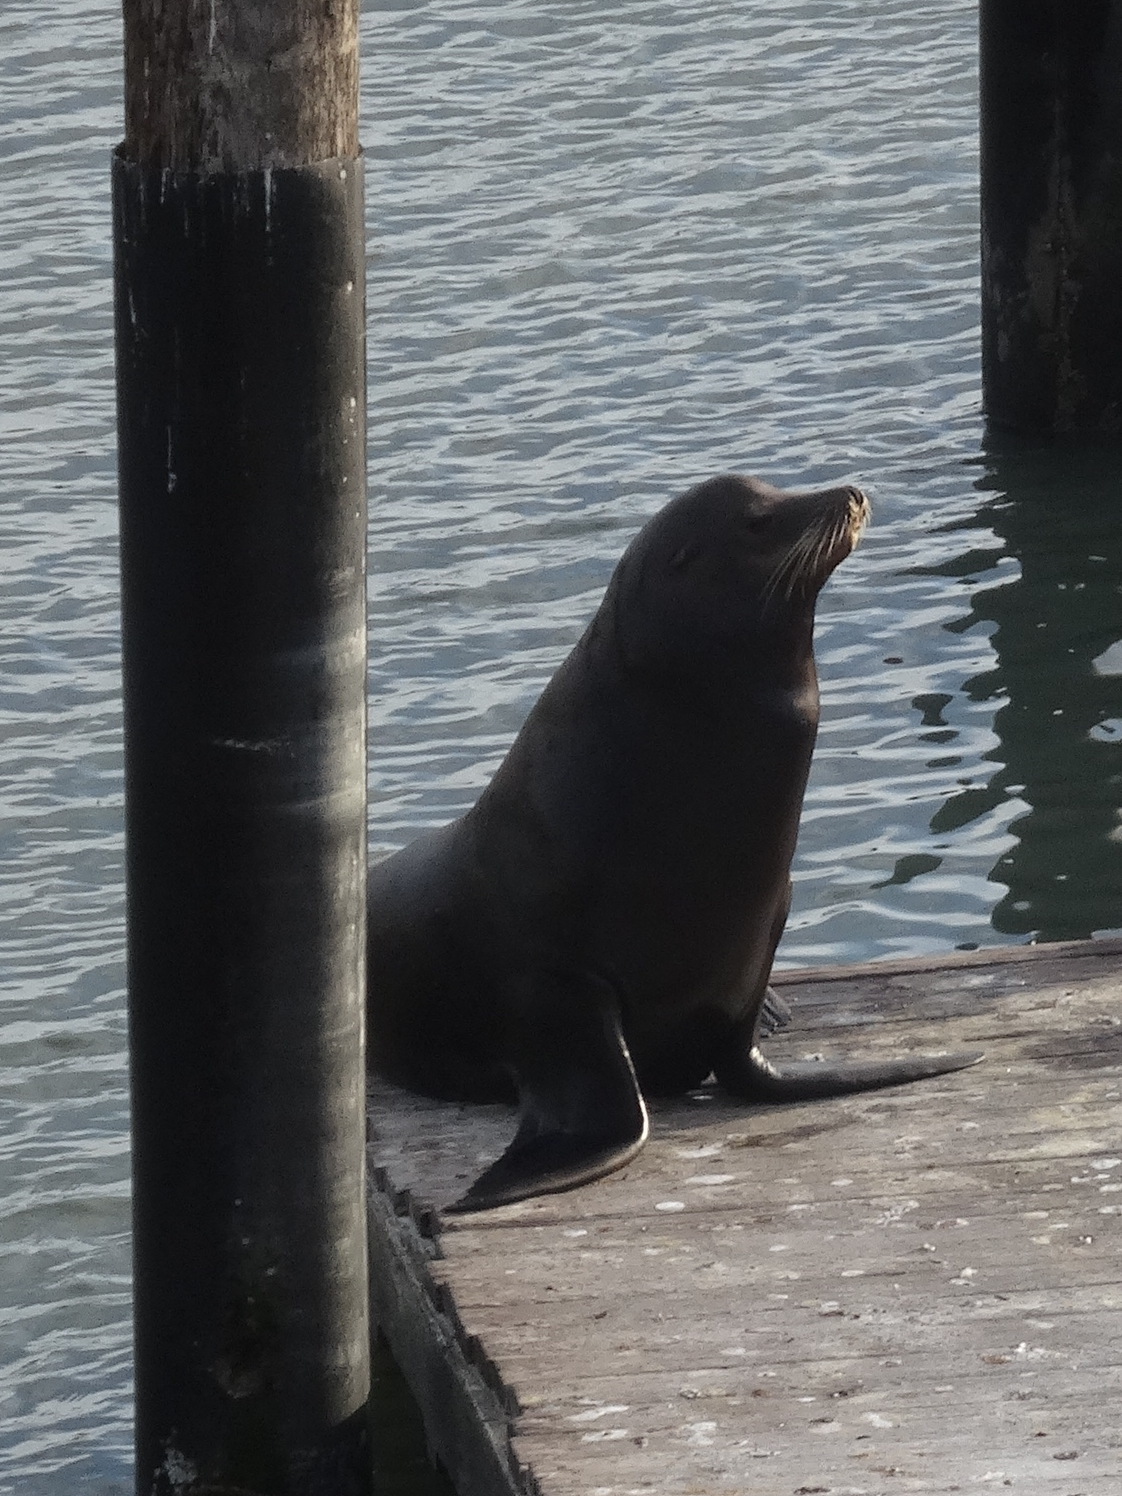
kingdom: Animalia
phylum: Chordata
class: Mammalia
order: Carnivora
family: Otariidae
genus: Zalophus
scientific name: Zalophus californianus
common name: California sea lion
